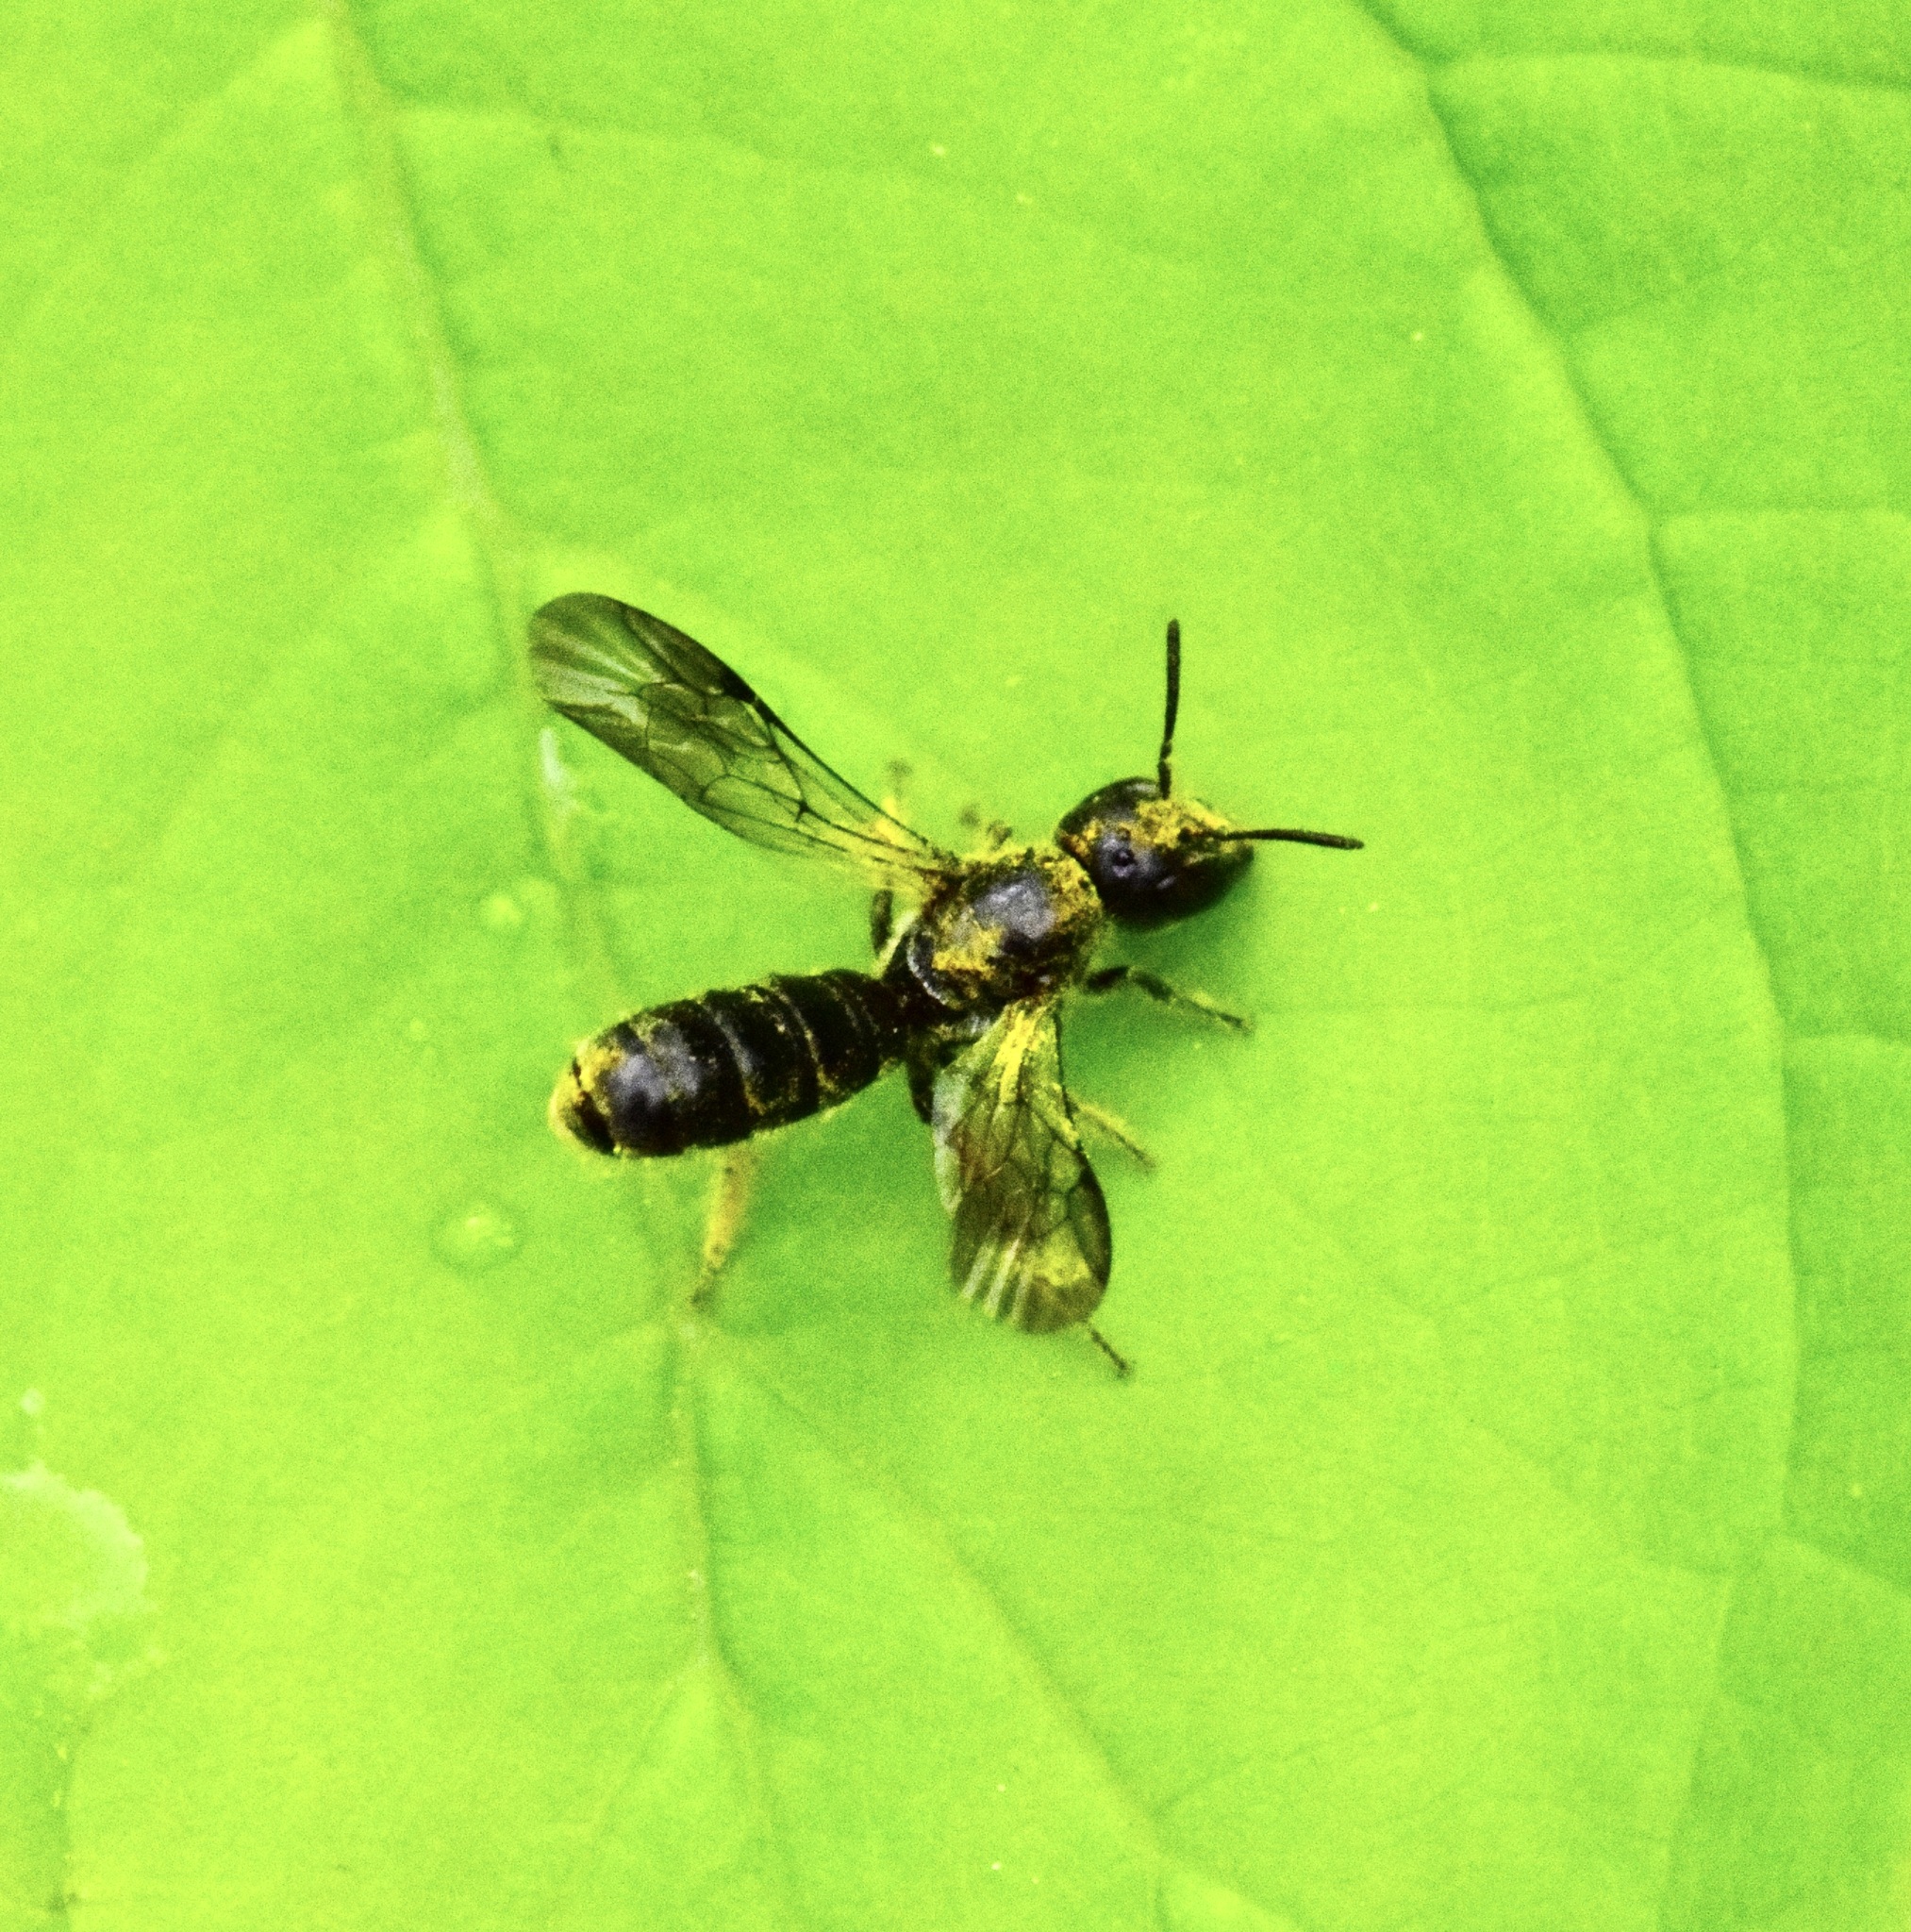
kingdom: Animalia
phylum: Arthropoda
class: Insecta
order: Hymenoptera
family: Megachilidae
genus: Chelostoma
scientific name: Chelostoma philadelphi
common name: Mock-orange scissor bee
